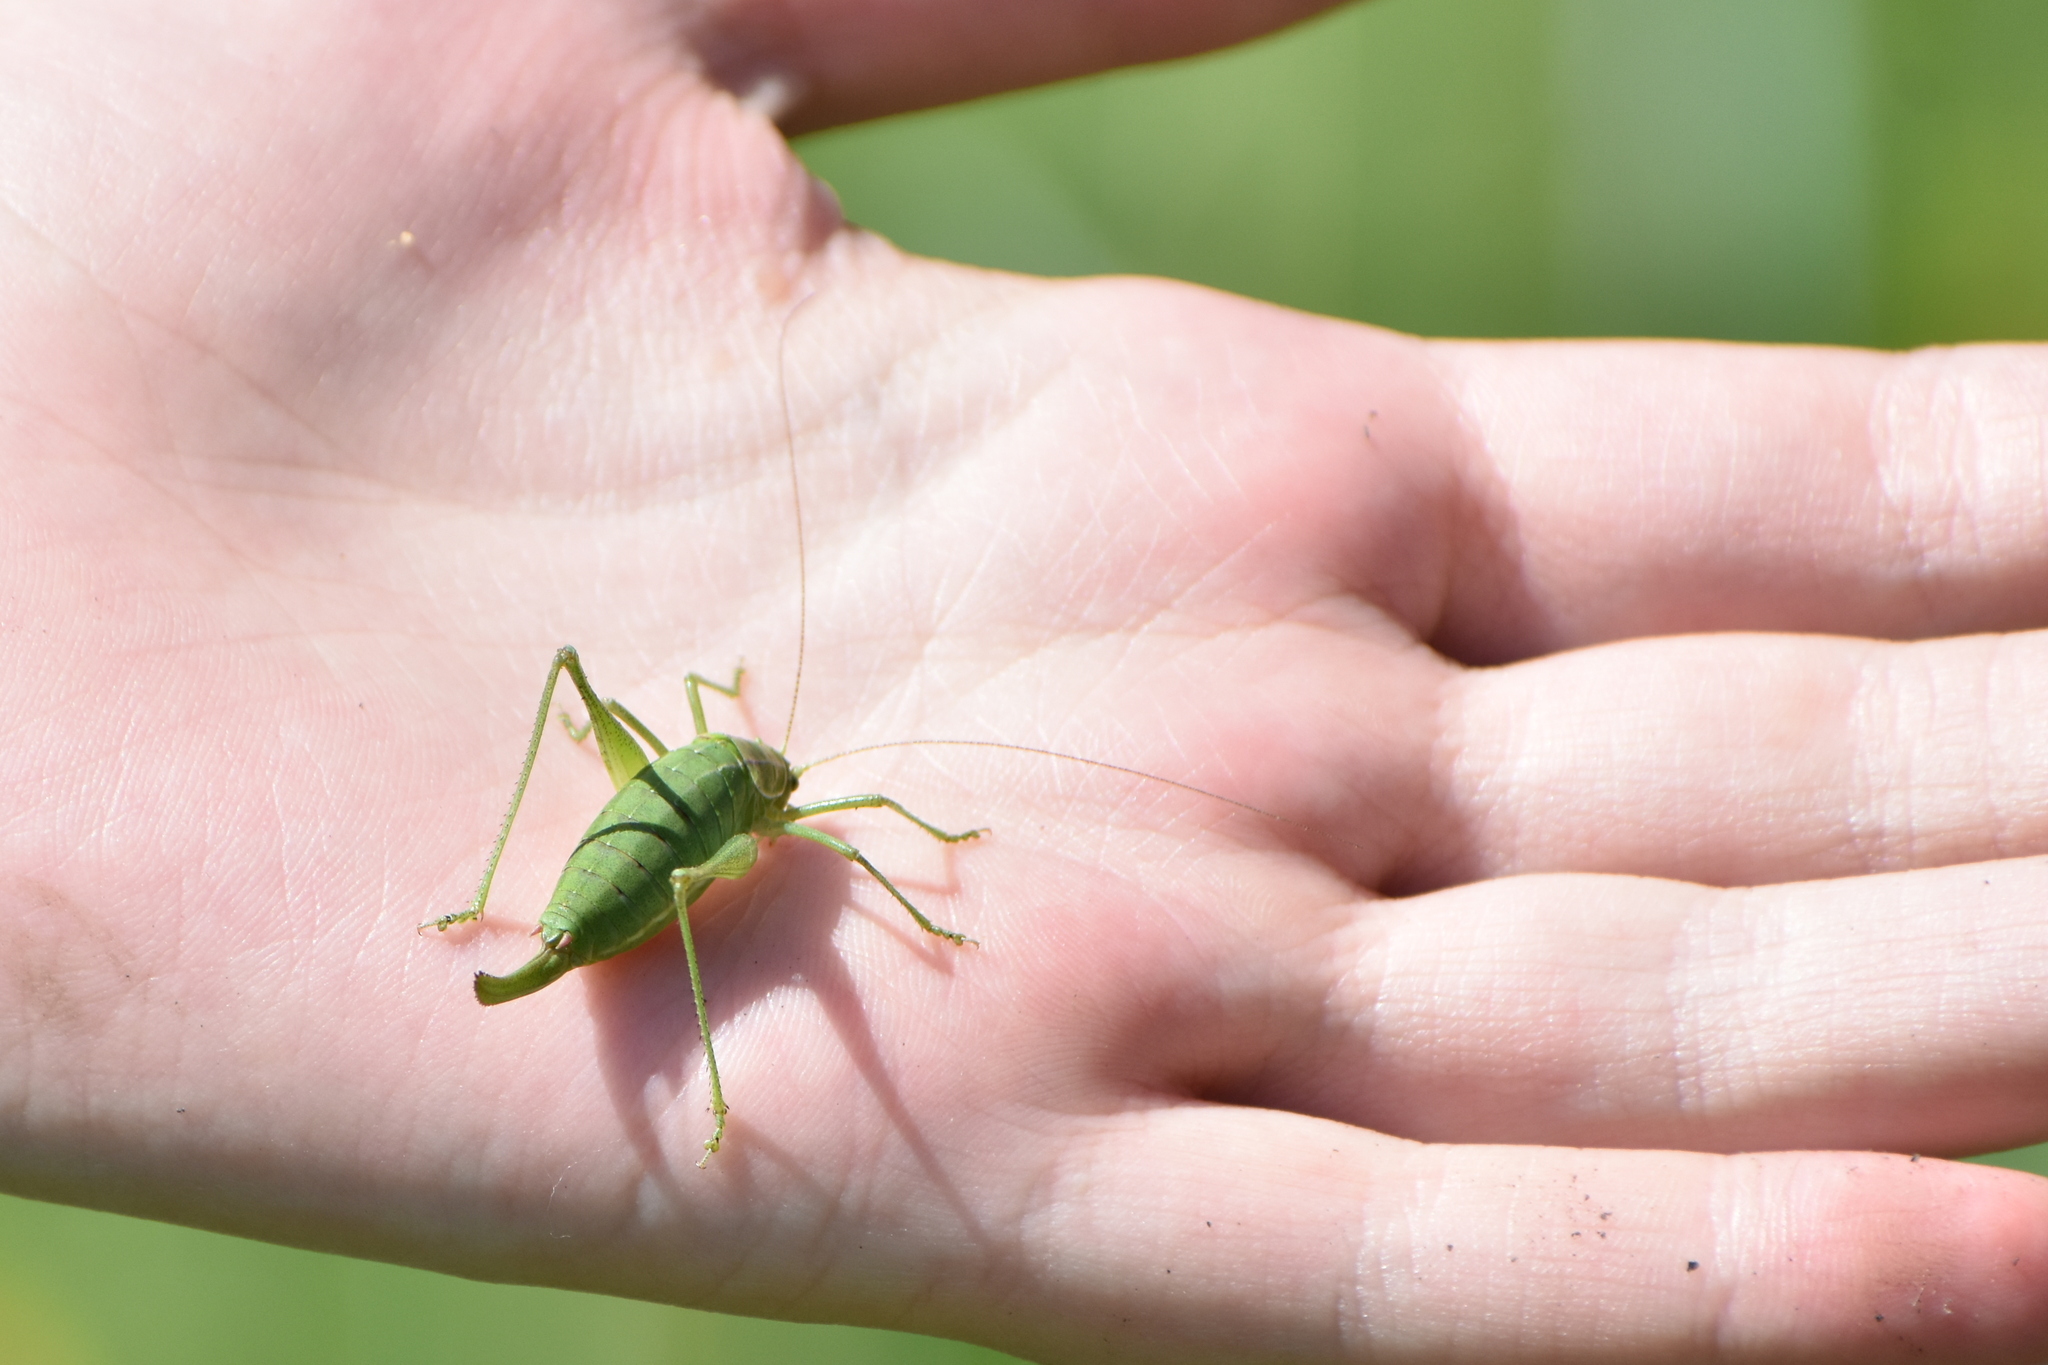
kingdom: Animalia
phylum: Arthropoda
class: Insecta
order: Orthoptera
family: Tettigoniidae
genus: Poecilimon
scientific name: Poecilimon intermedius
